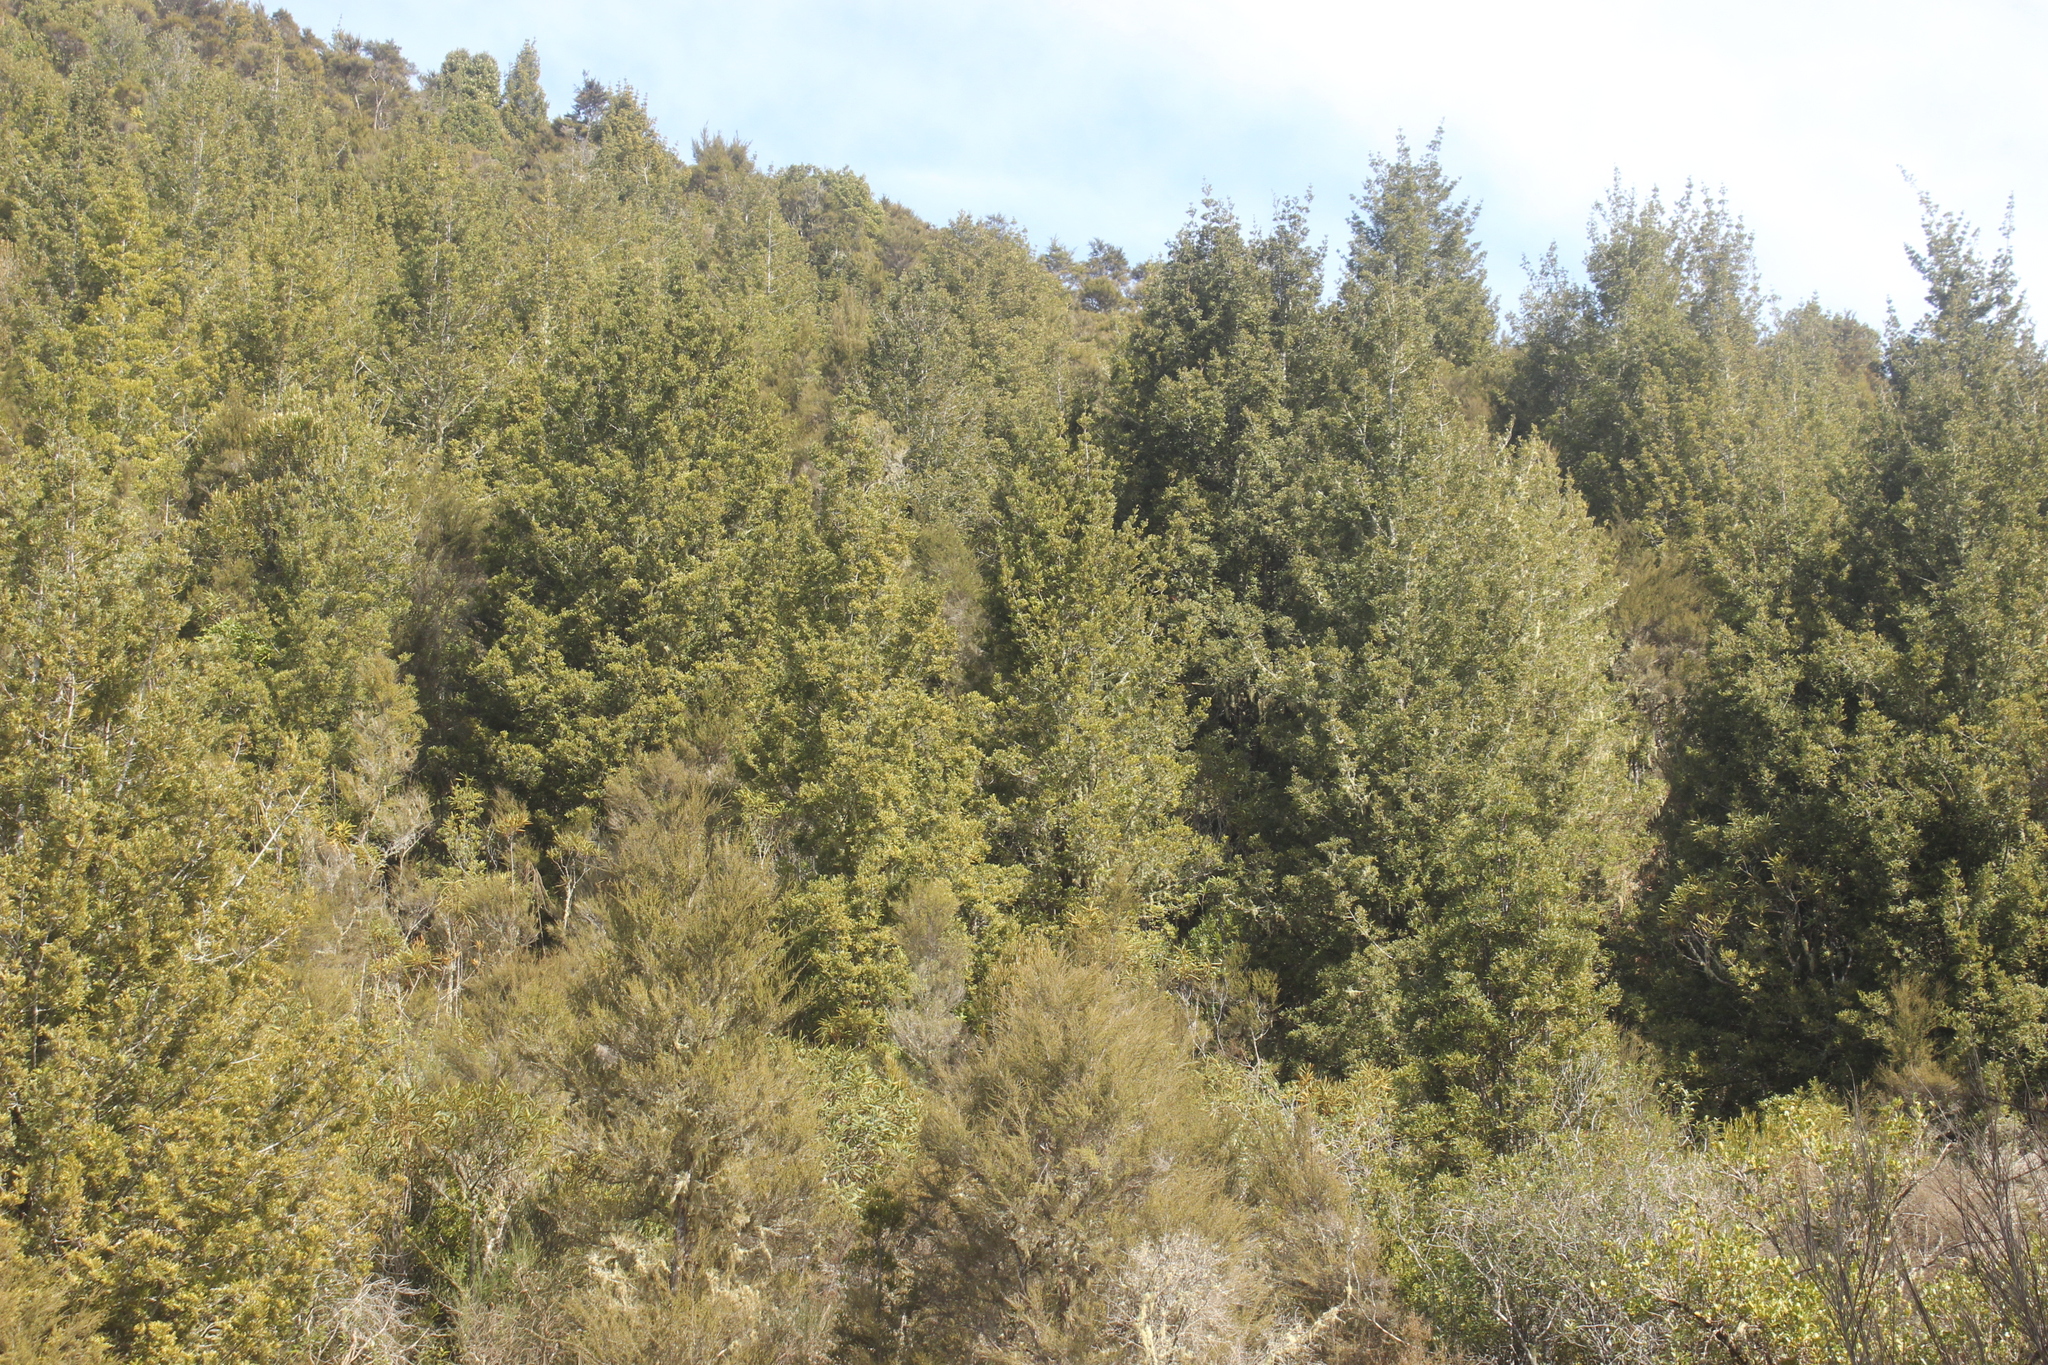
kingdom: Plantae
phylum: Tracheophyta
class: Pinopsida
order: Pinales
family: Phyllocladaceae
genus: Phyllocladus
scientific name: Phyllocladus trichomanoides
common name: Celery pine
